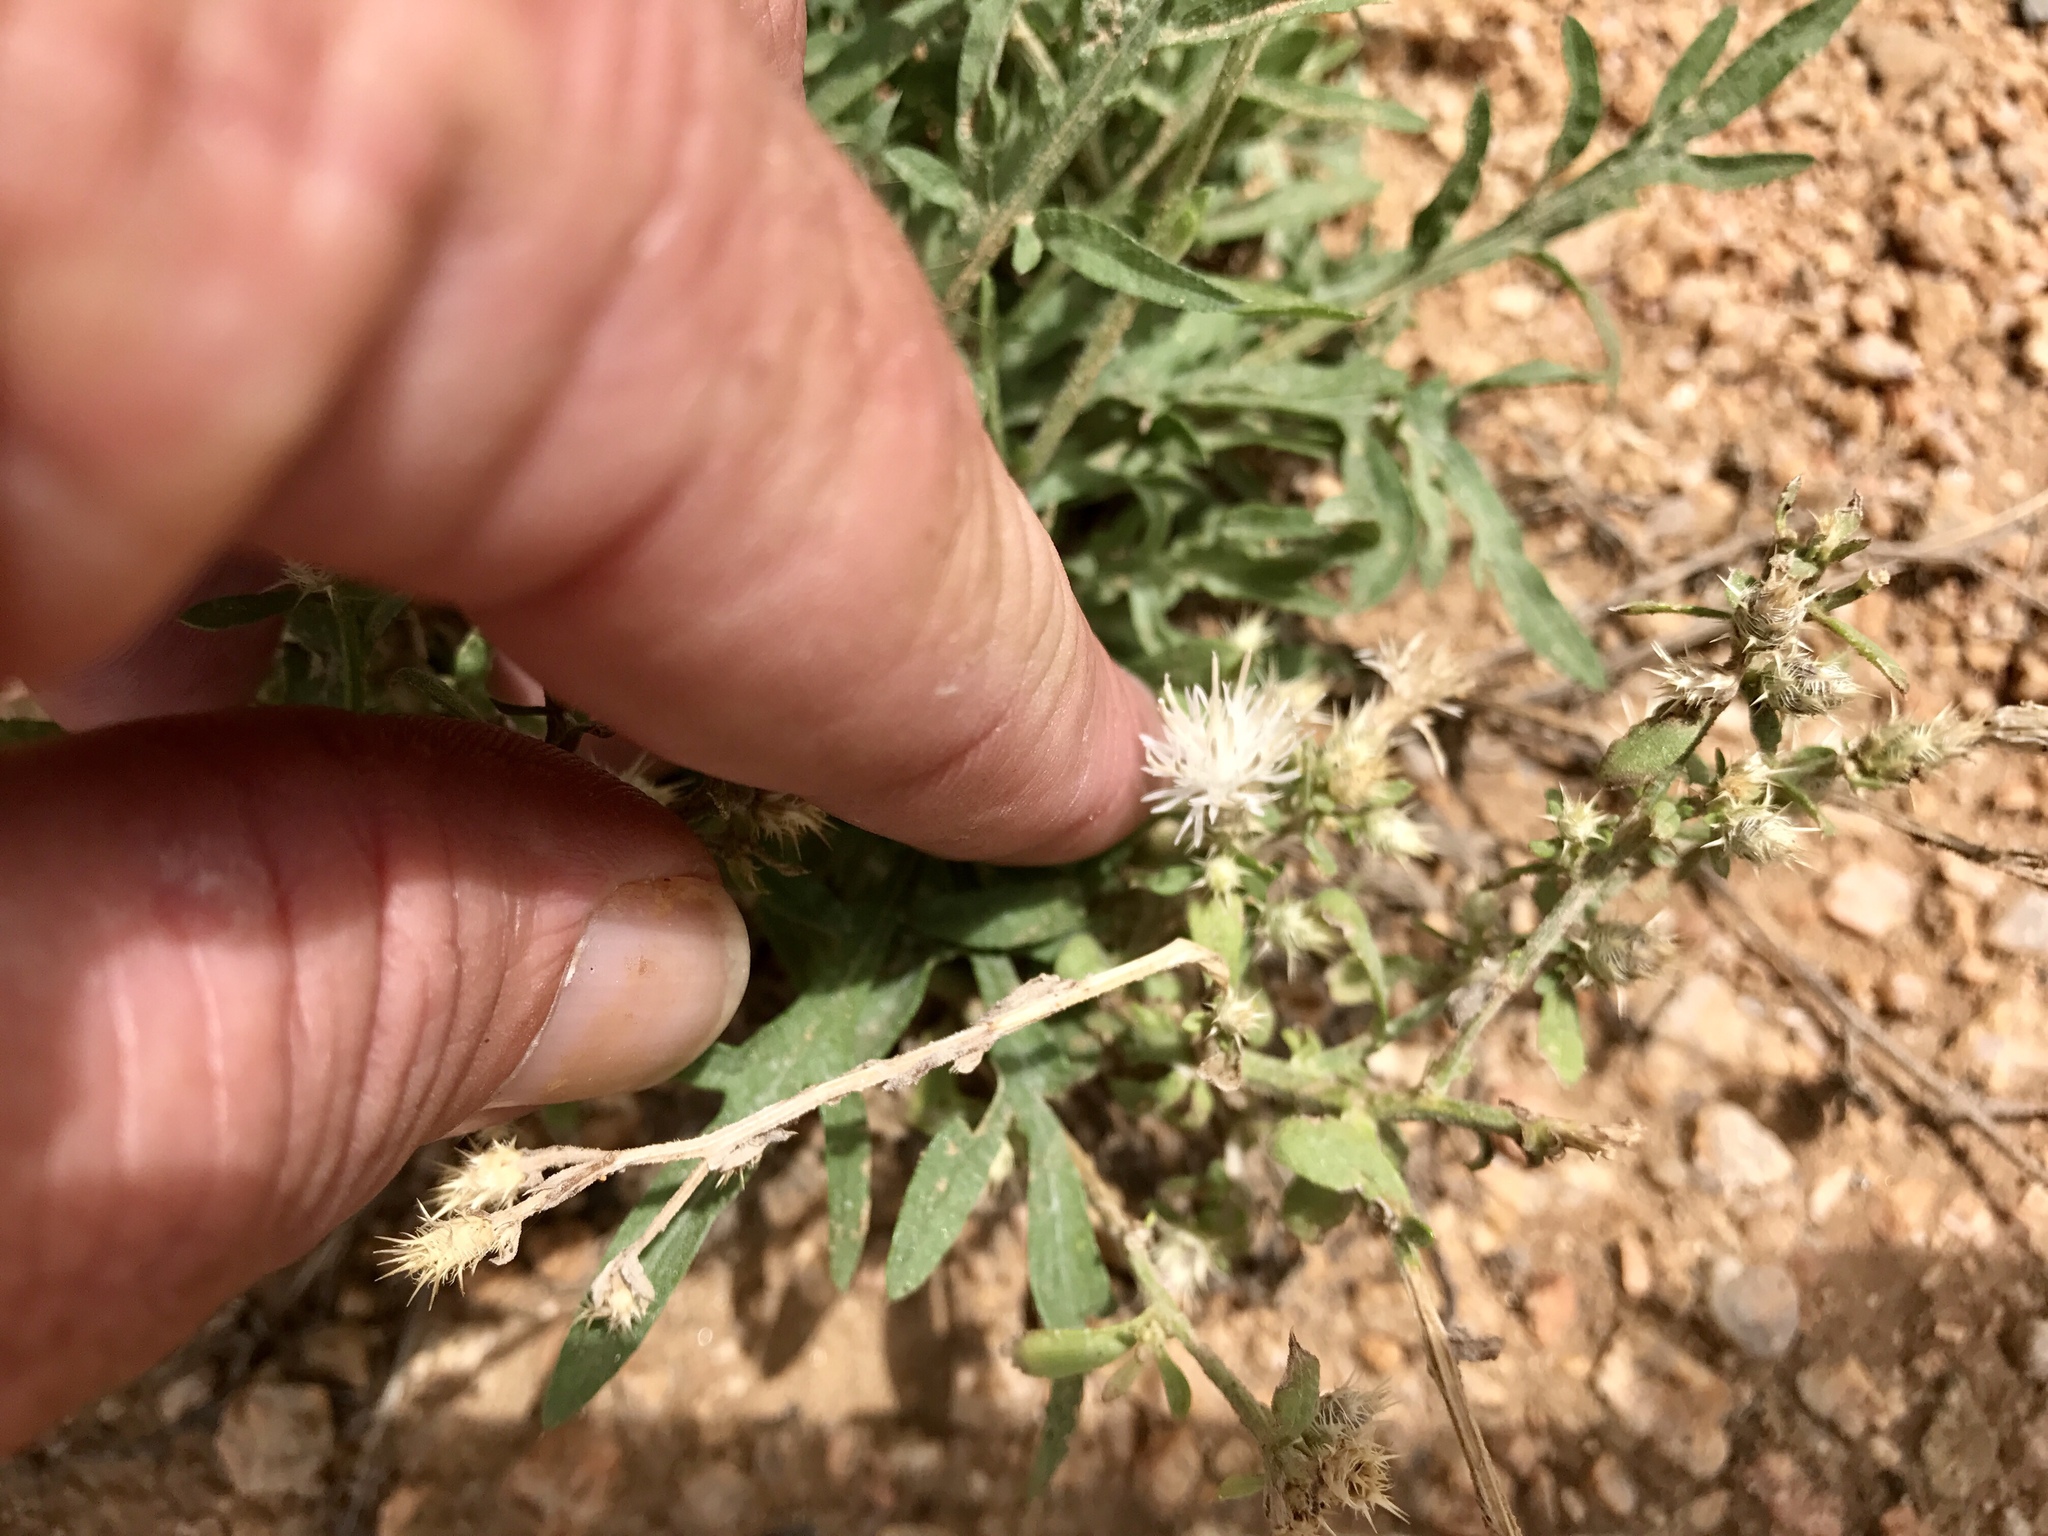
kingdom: Plantae
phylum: Tracheophyta
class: Magnoliopsida
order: Asterales
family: Asteraceae
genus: Centaurea
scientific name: Centaurea diffusa
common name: Diffuse knapweed
